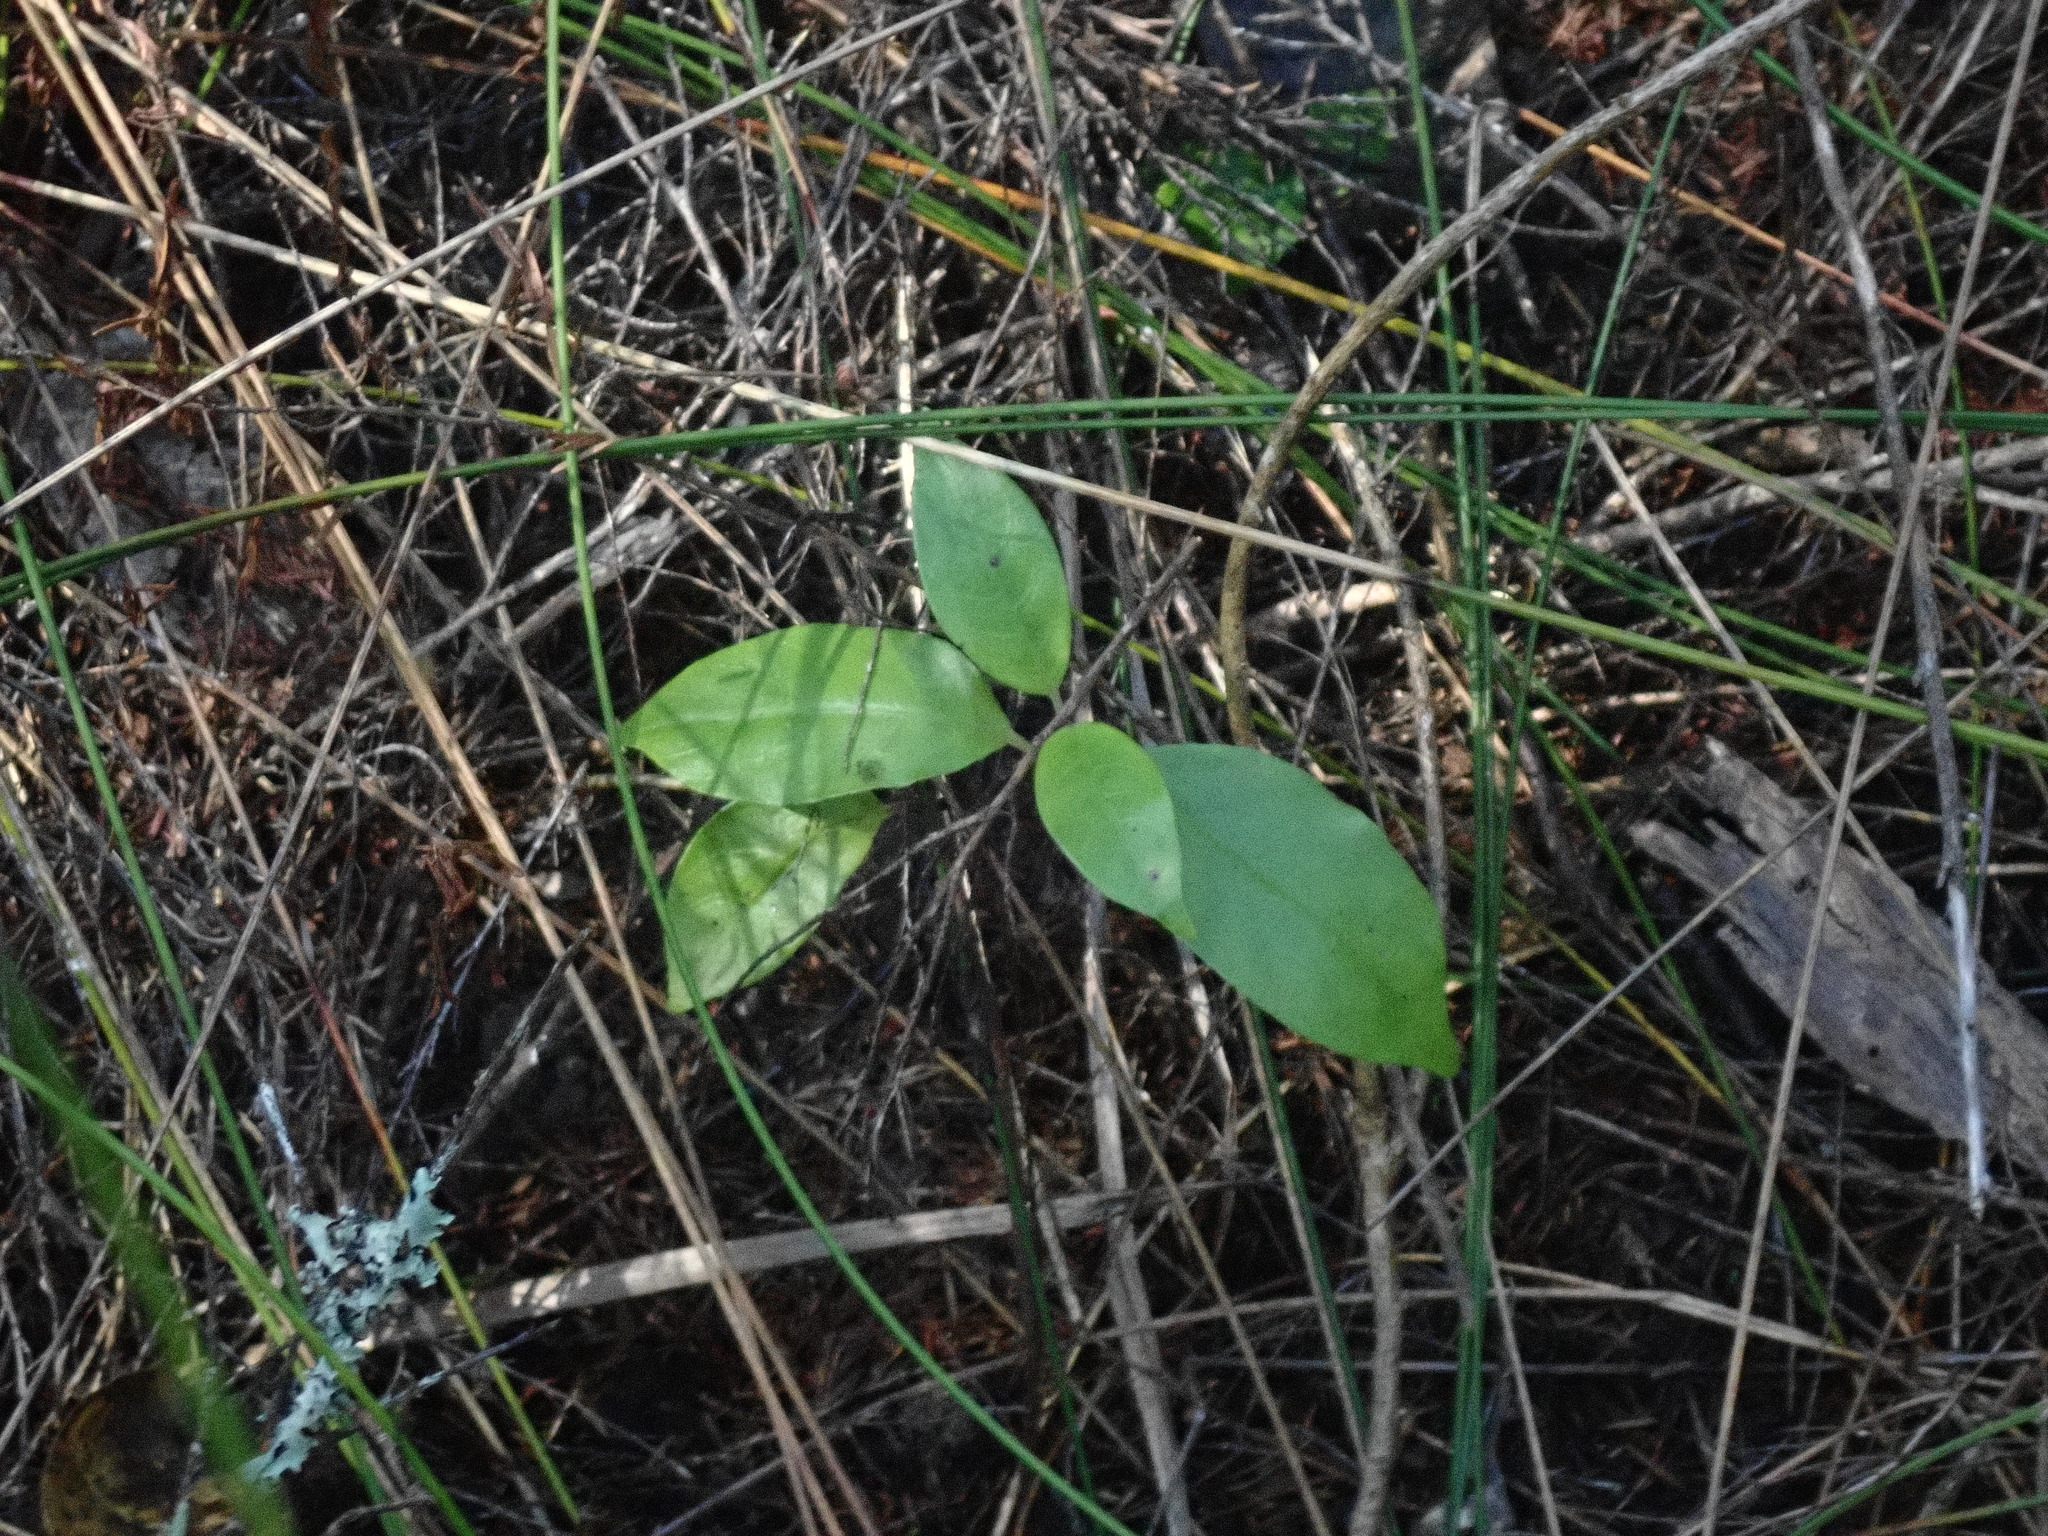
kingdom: Plantae
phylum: Tracheophyta
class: Liliopsida
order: Poales
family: Cyperaceae
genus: Schoenus
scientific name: Schoenus tendo
